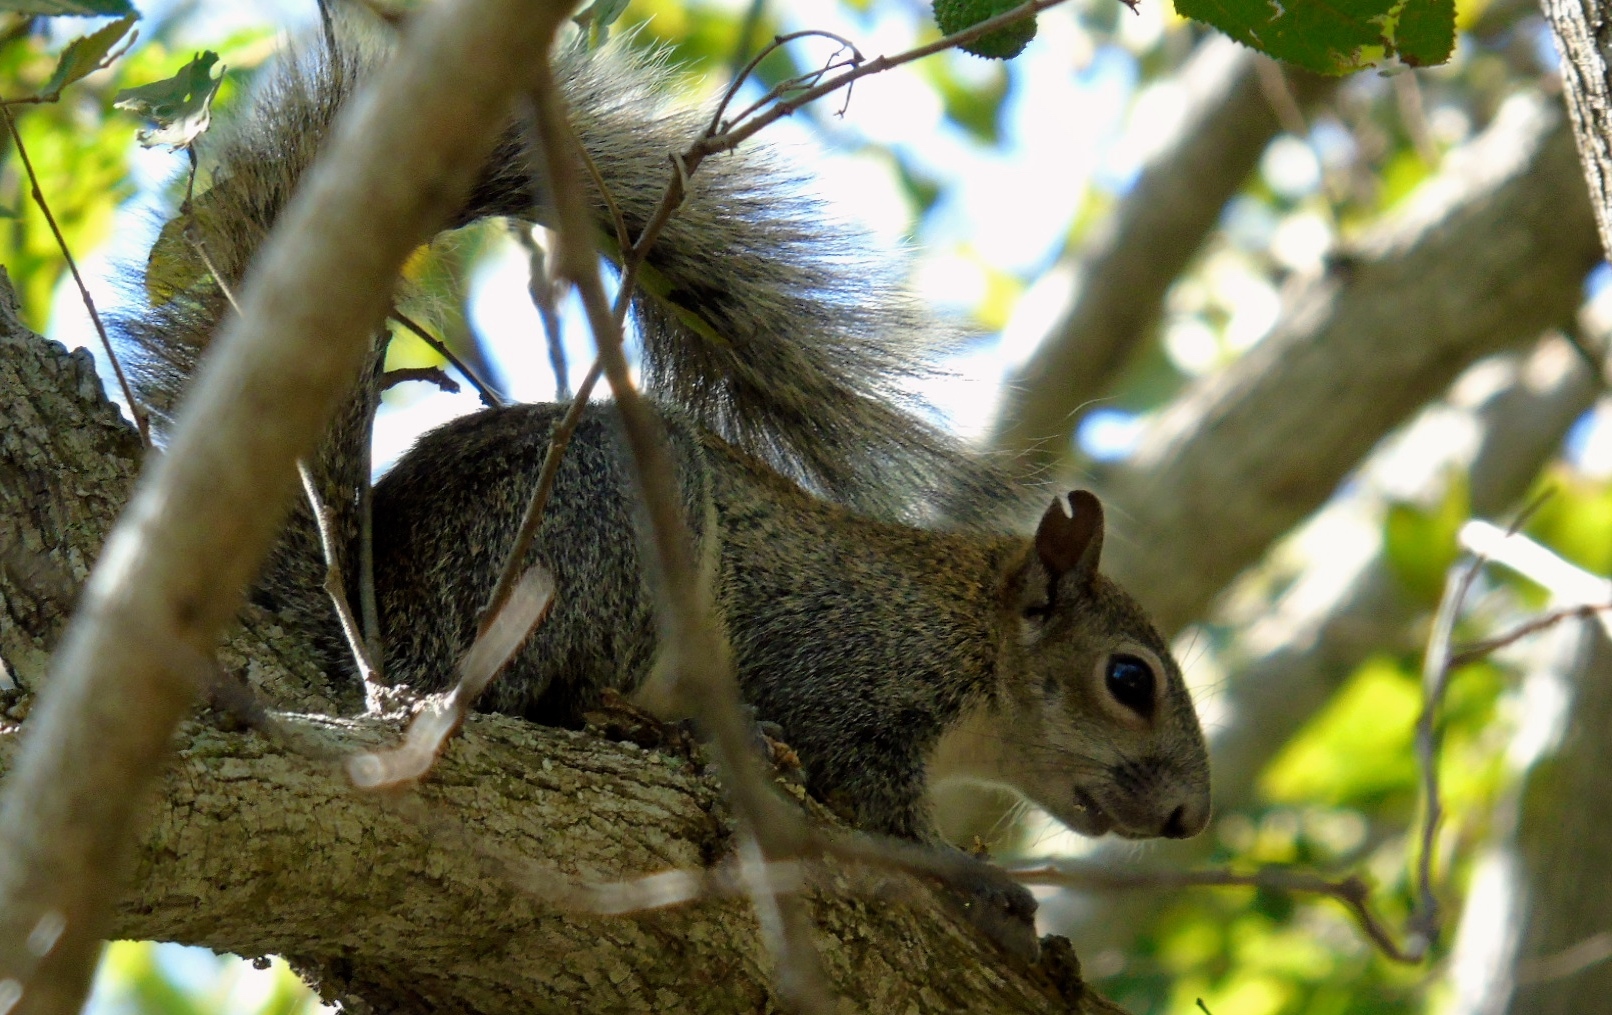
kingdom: Animalia
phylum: Chordata
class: Mammalia
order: Rodentia
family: Sciuridae
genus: Sciurus
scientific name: Sciurus colliaei
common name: Collie's squirrel
